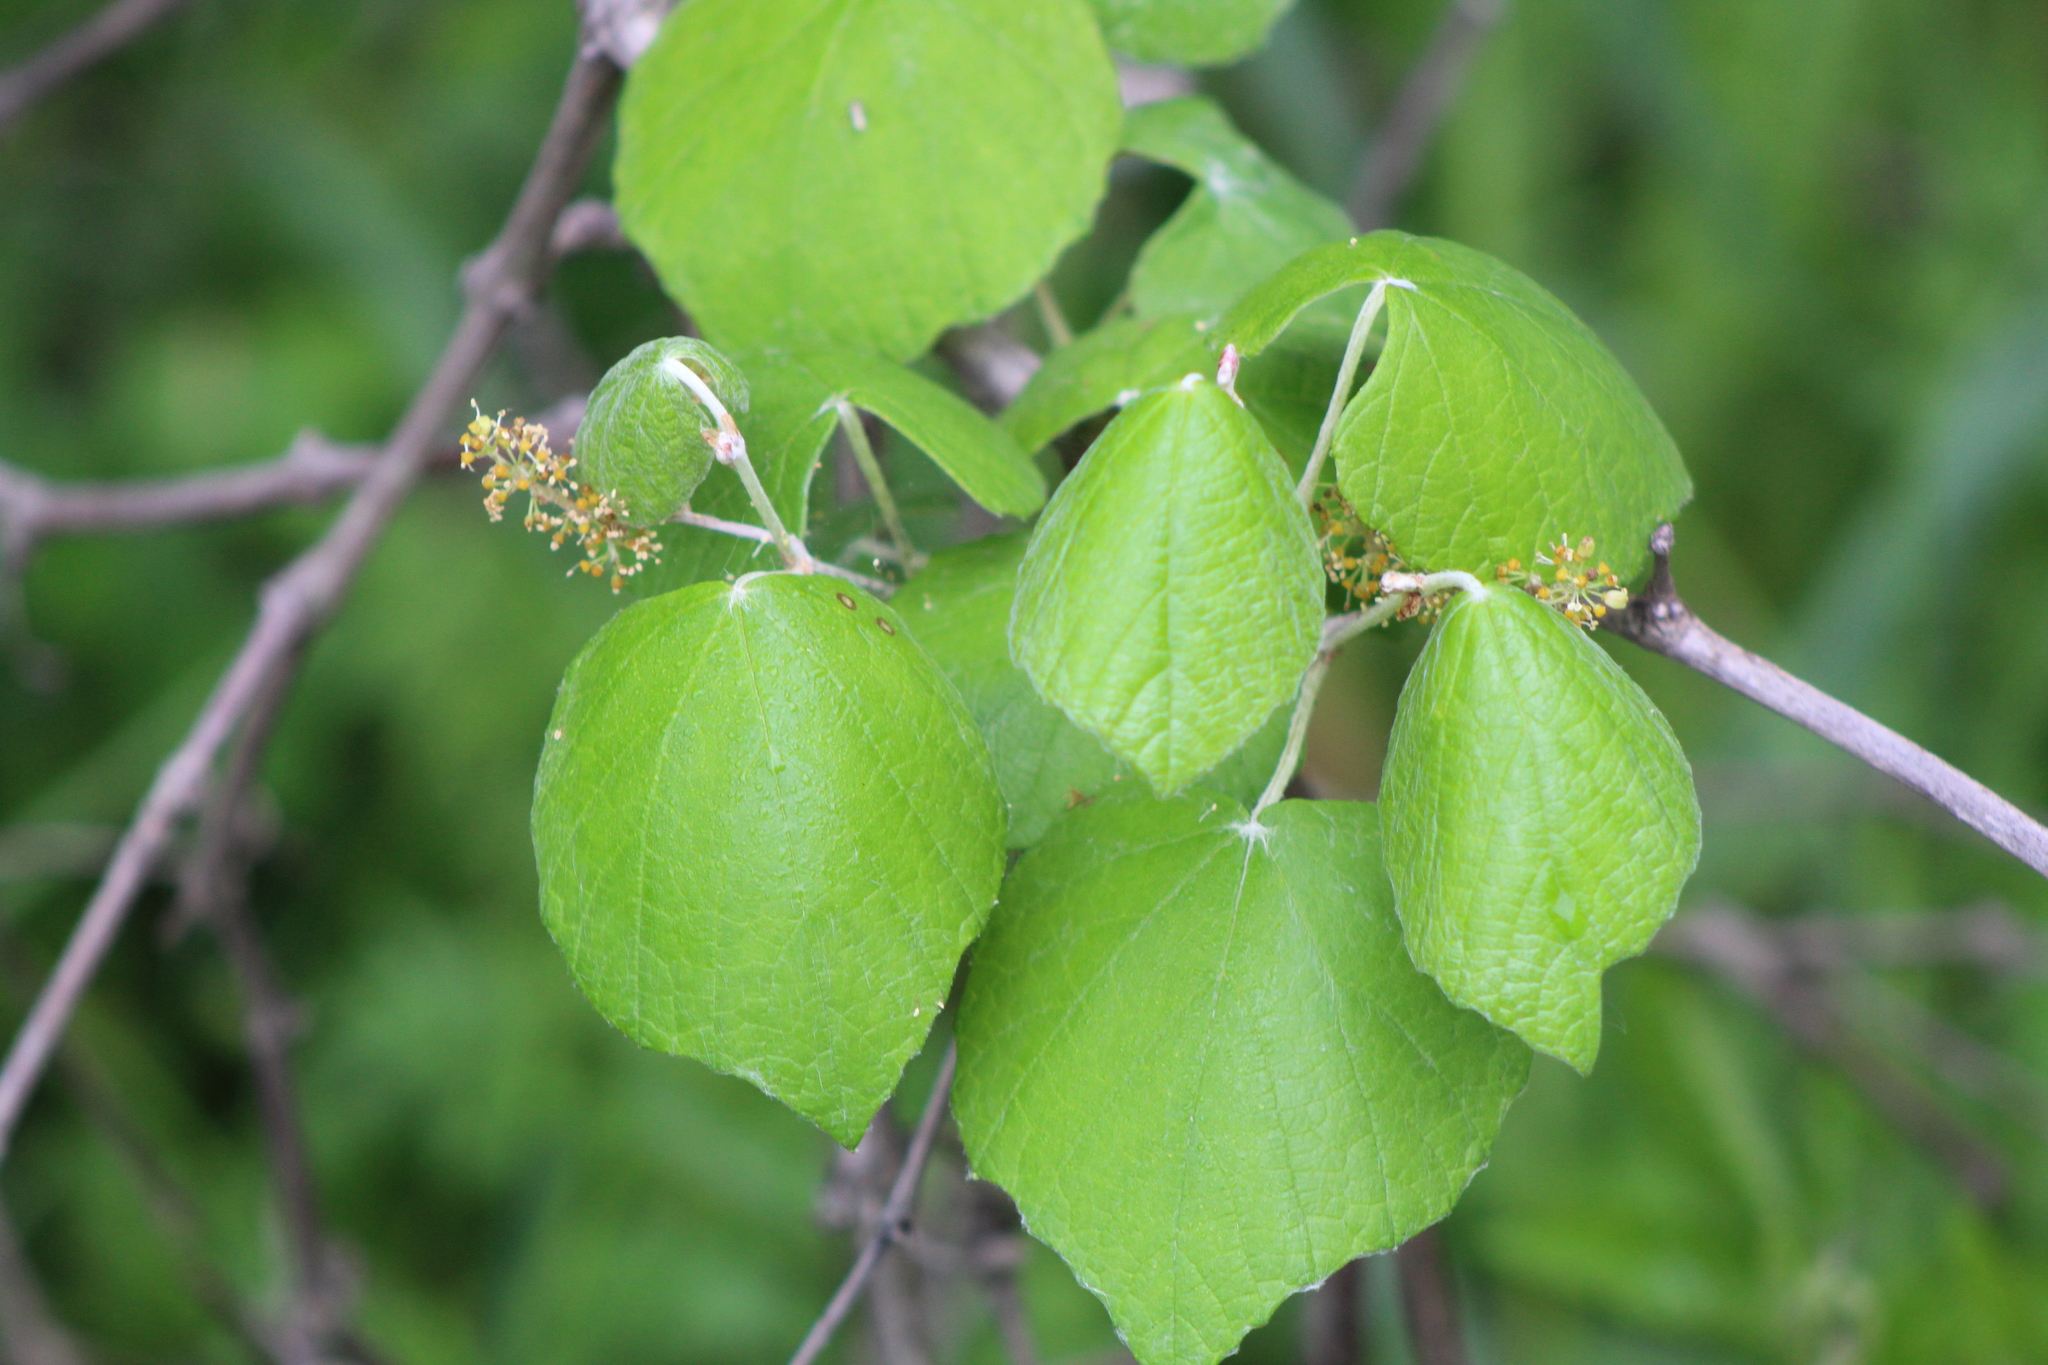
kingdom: Plantae
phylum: Tracheophyta
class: Magnoliopsida
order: Vitales
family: Vitaceae
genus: Vitis
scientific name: Vitis mustangensis
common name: Mustang grape
